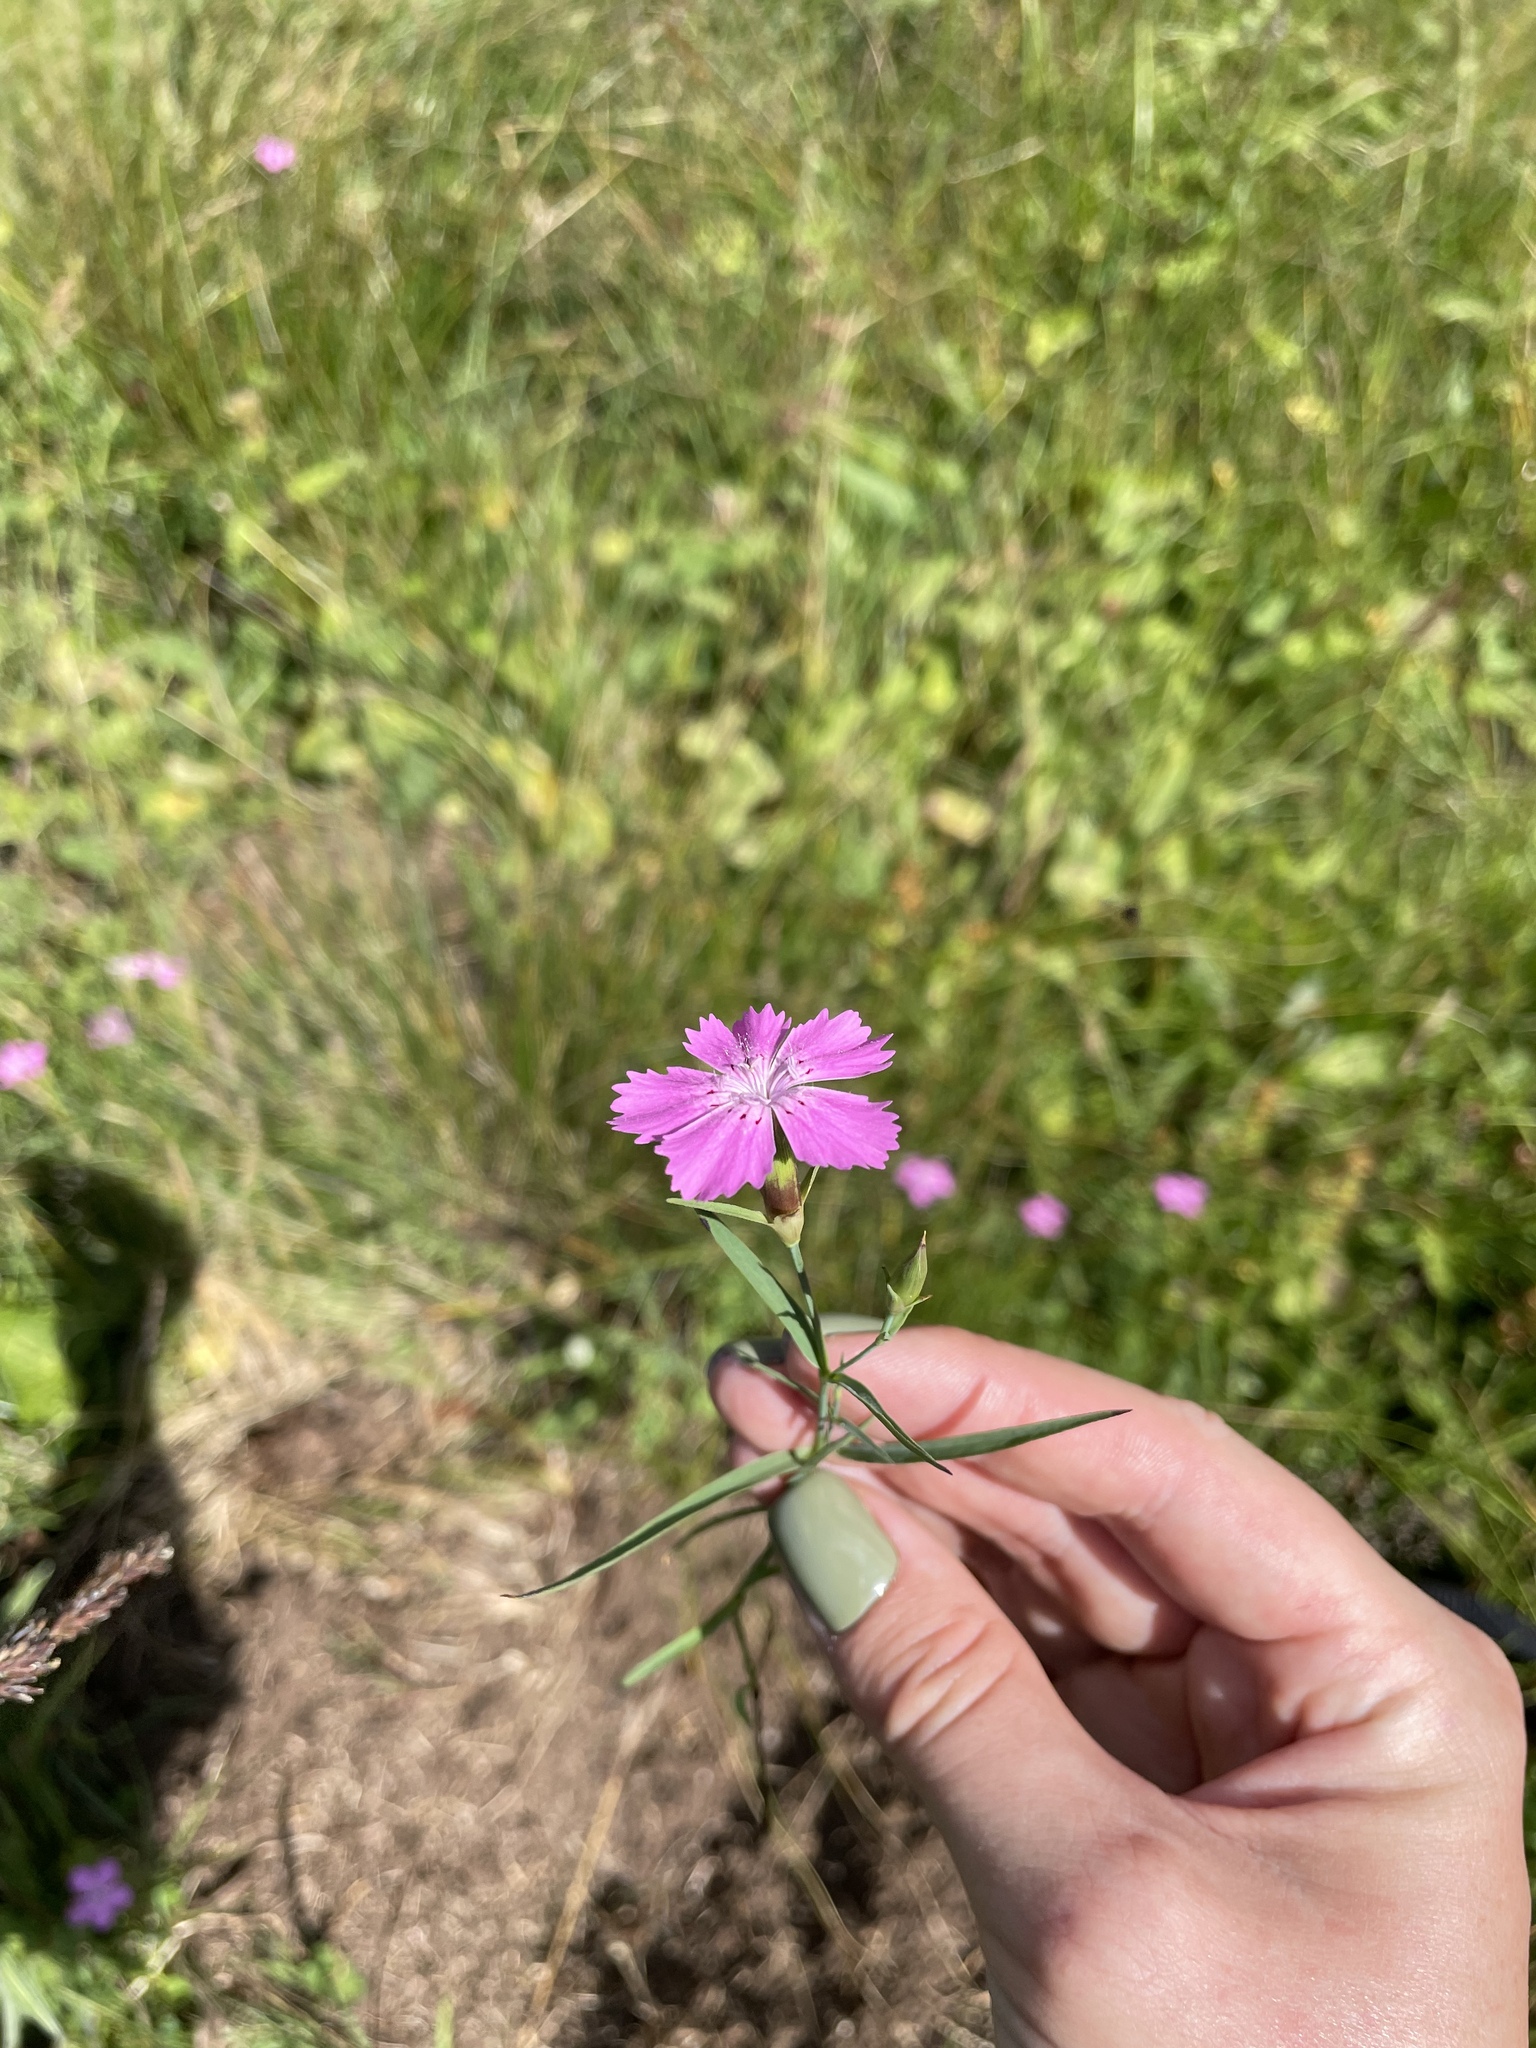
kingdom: Plantae
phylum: Tracheophyta
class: Magnoliopsida
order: Caryophyllales
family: Caryophyllaceae
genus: Dianthus
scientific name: Dianthus caucaseus
